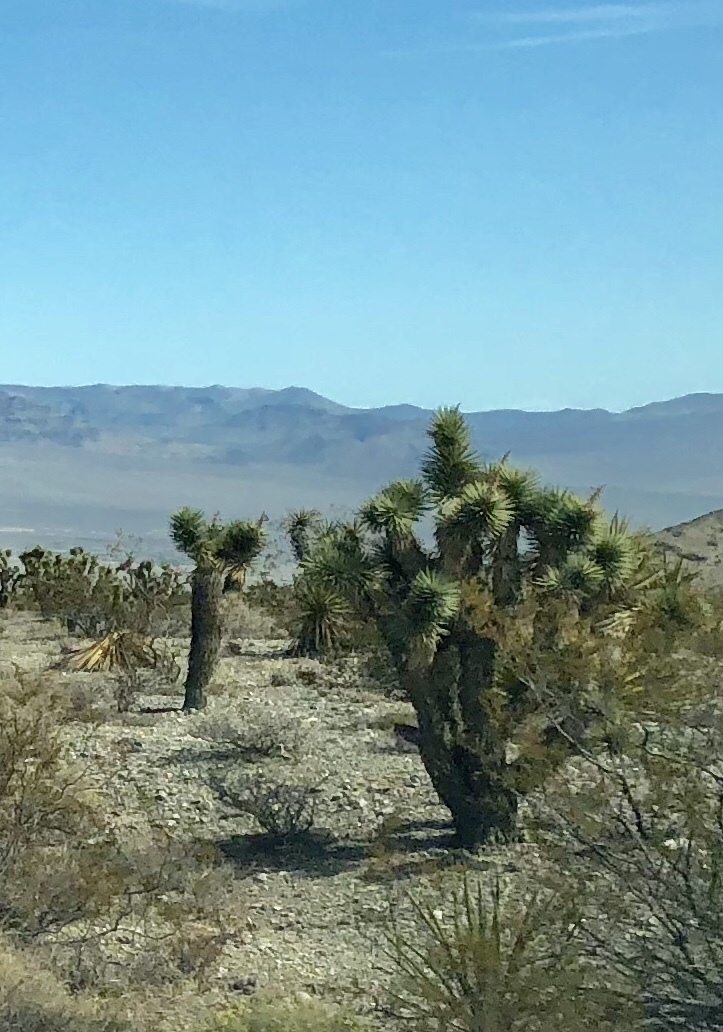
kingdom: Plantae
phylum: Tracheophyta
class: Liliopsida
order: Asparagales
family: Asparagaceae
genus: Yucca
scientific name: Yucca brevifolia
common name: Joshua tree
